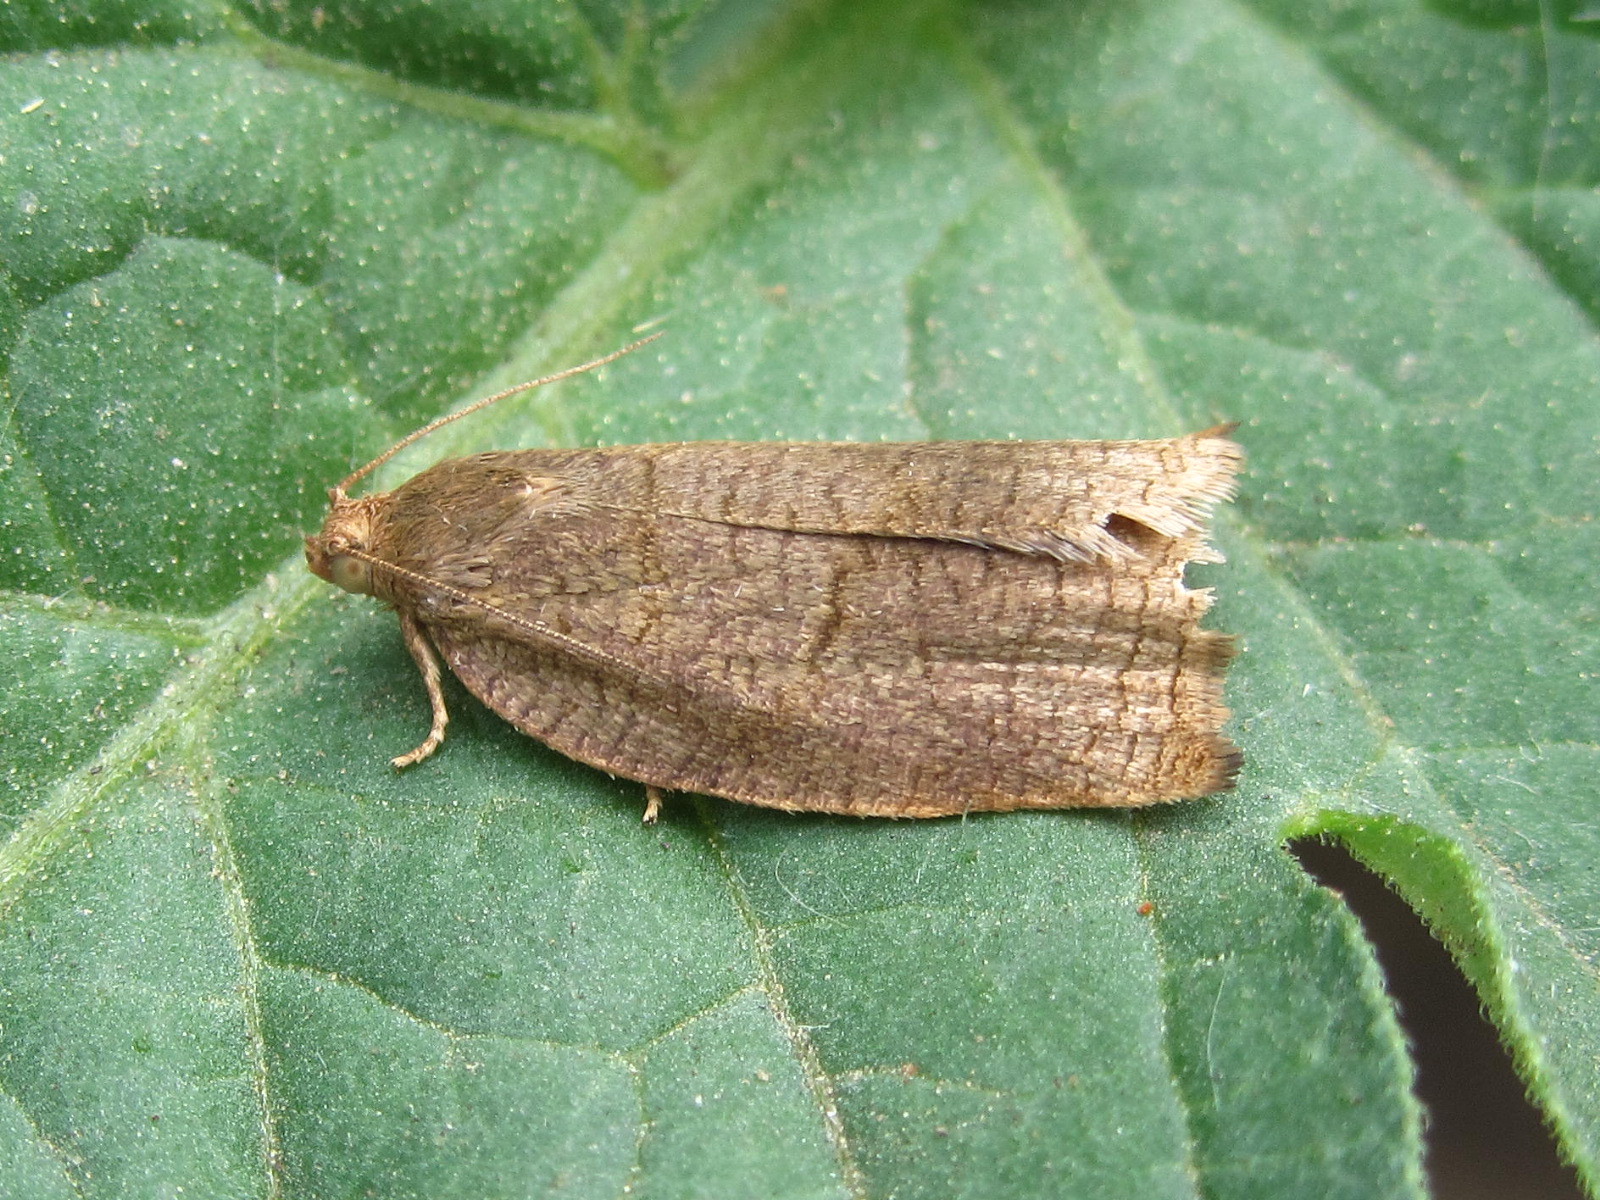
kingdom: Animalia
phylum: Arthropoda
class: Insecta
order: Lepidoptera
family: Tortricidae
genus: Archips
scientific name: Archips rosana
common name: Rose tortrix
